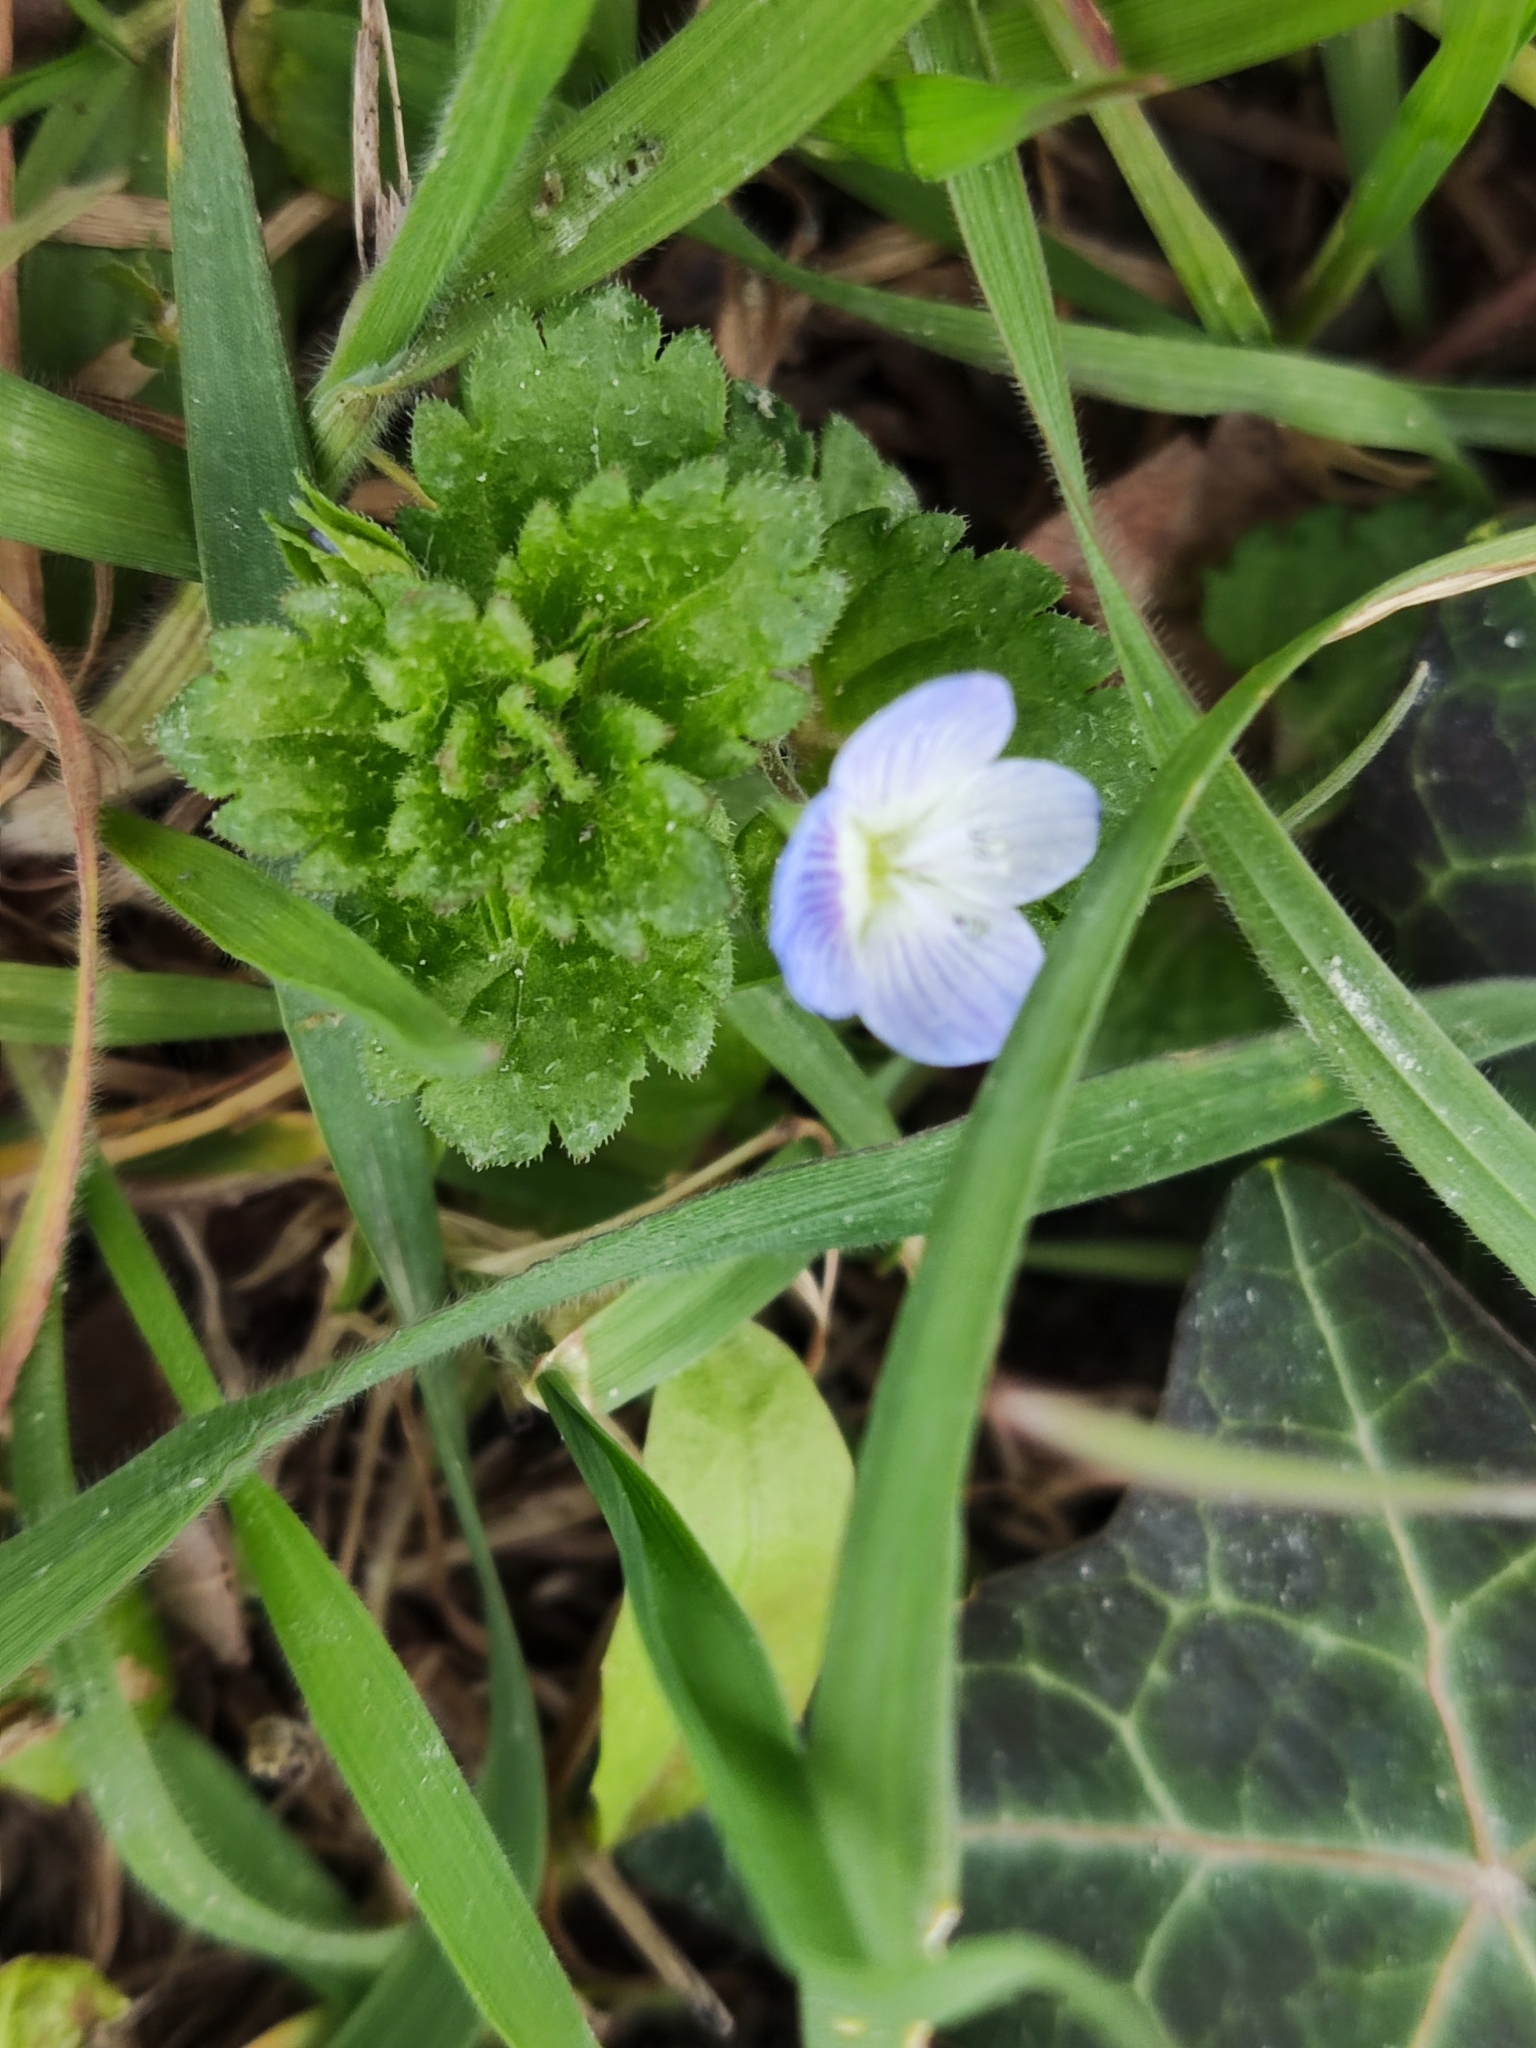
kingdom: Plantae
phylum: Tracheophyta
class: Magnoliopsida
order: Lamiales
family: Plantaginaceae
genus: Veronica
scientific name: Veronica persica
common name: Common field-speedwell
